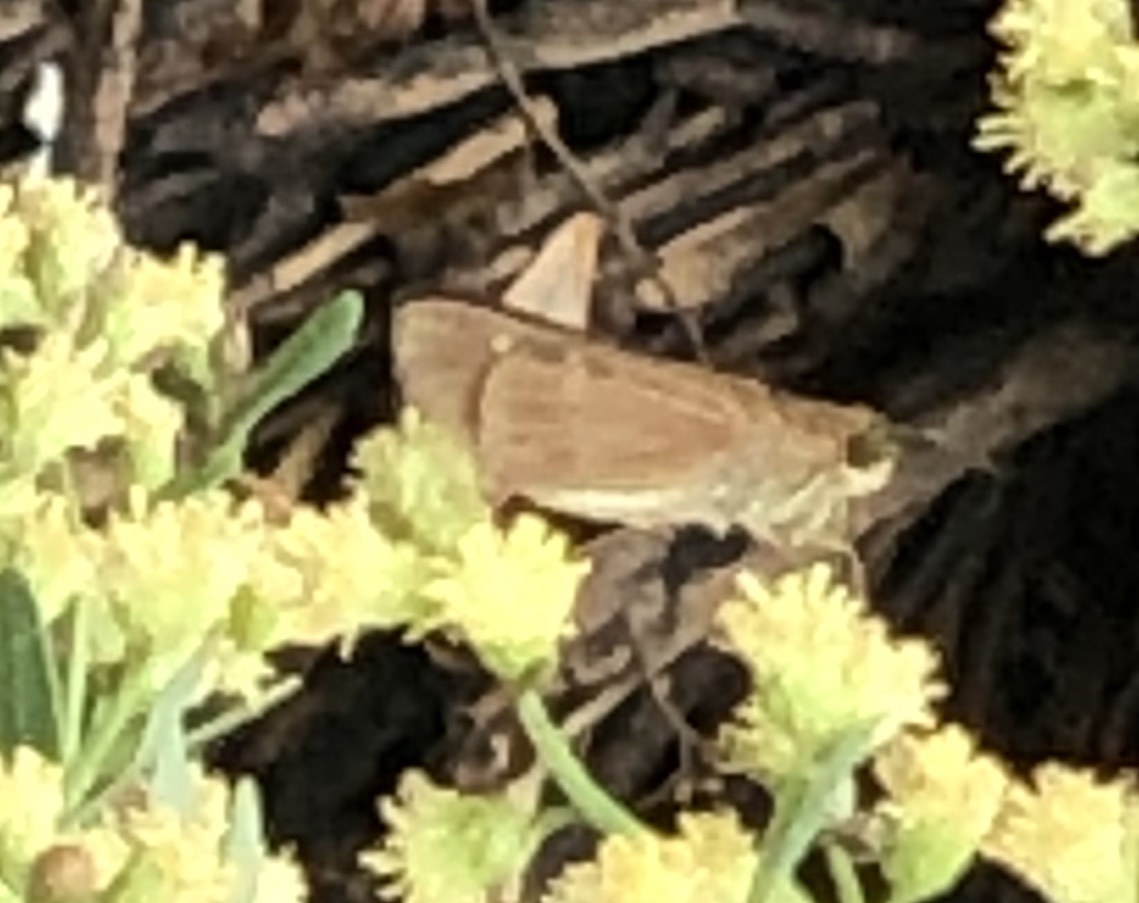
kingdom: Animalia
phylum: Arthropoda
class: Insecta
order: Lepidoptera
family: Hesperiidae
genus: Panoquina
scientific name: Panoquina ocola
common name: Ocola skipper
